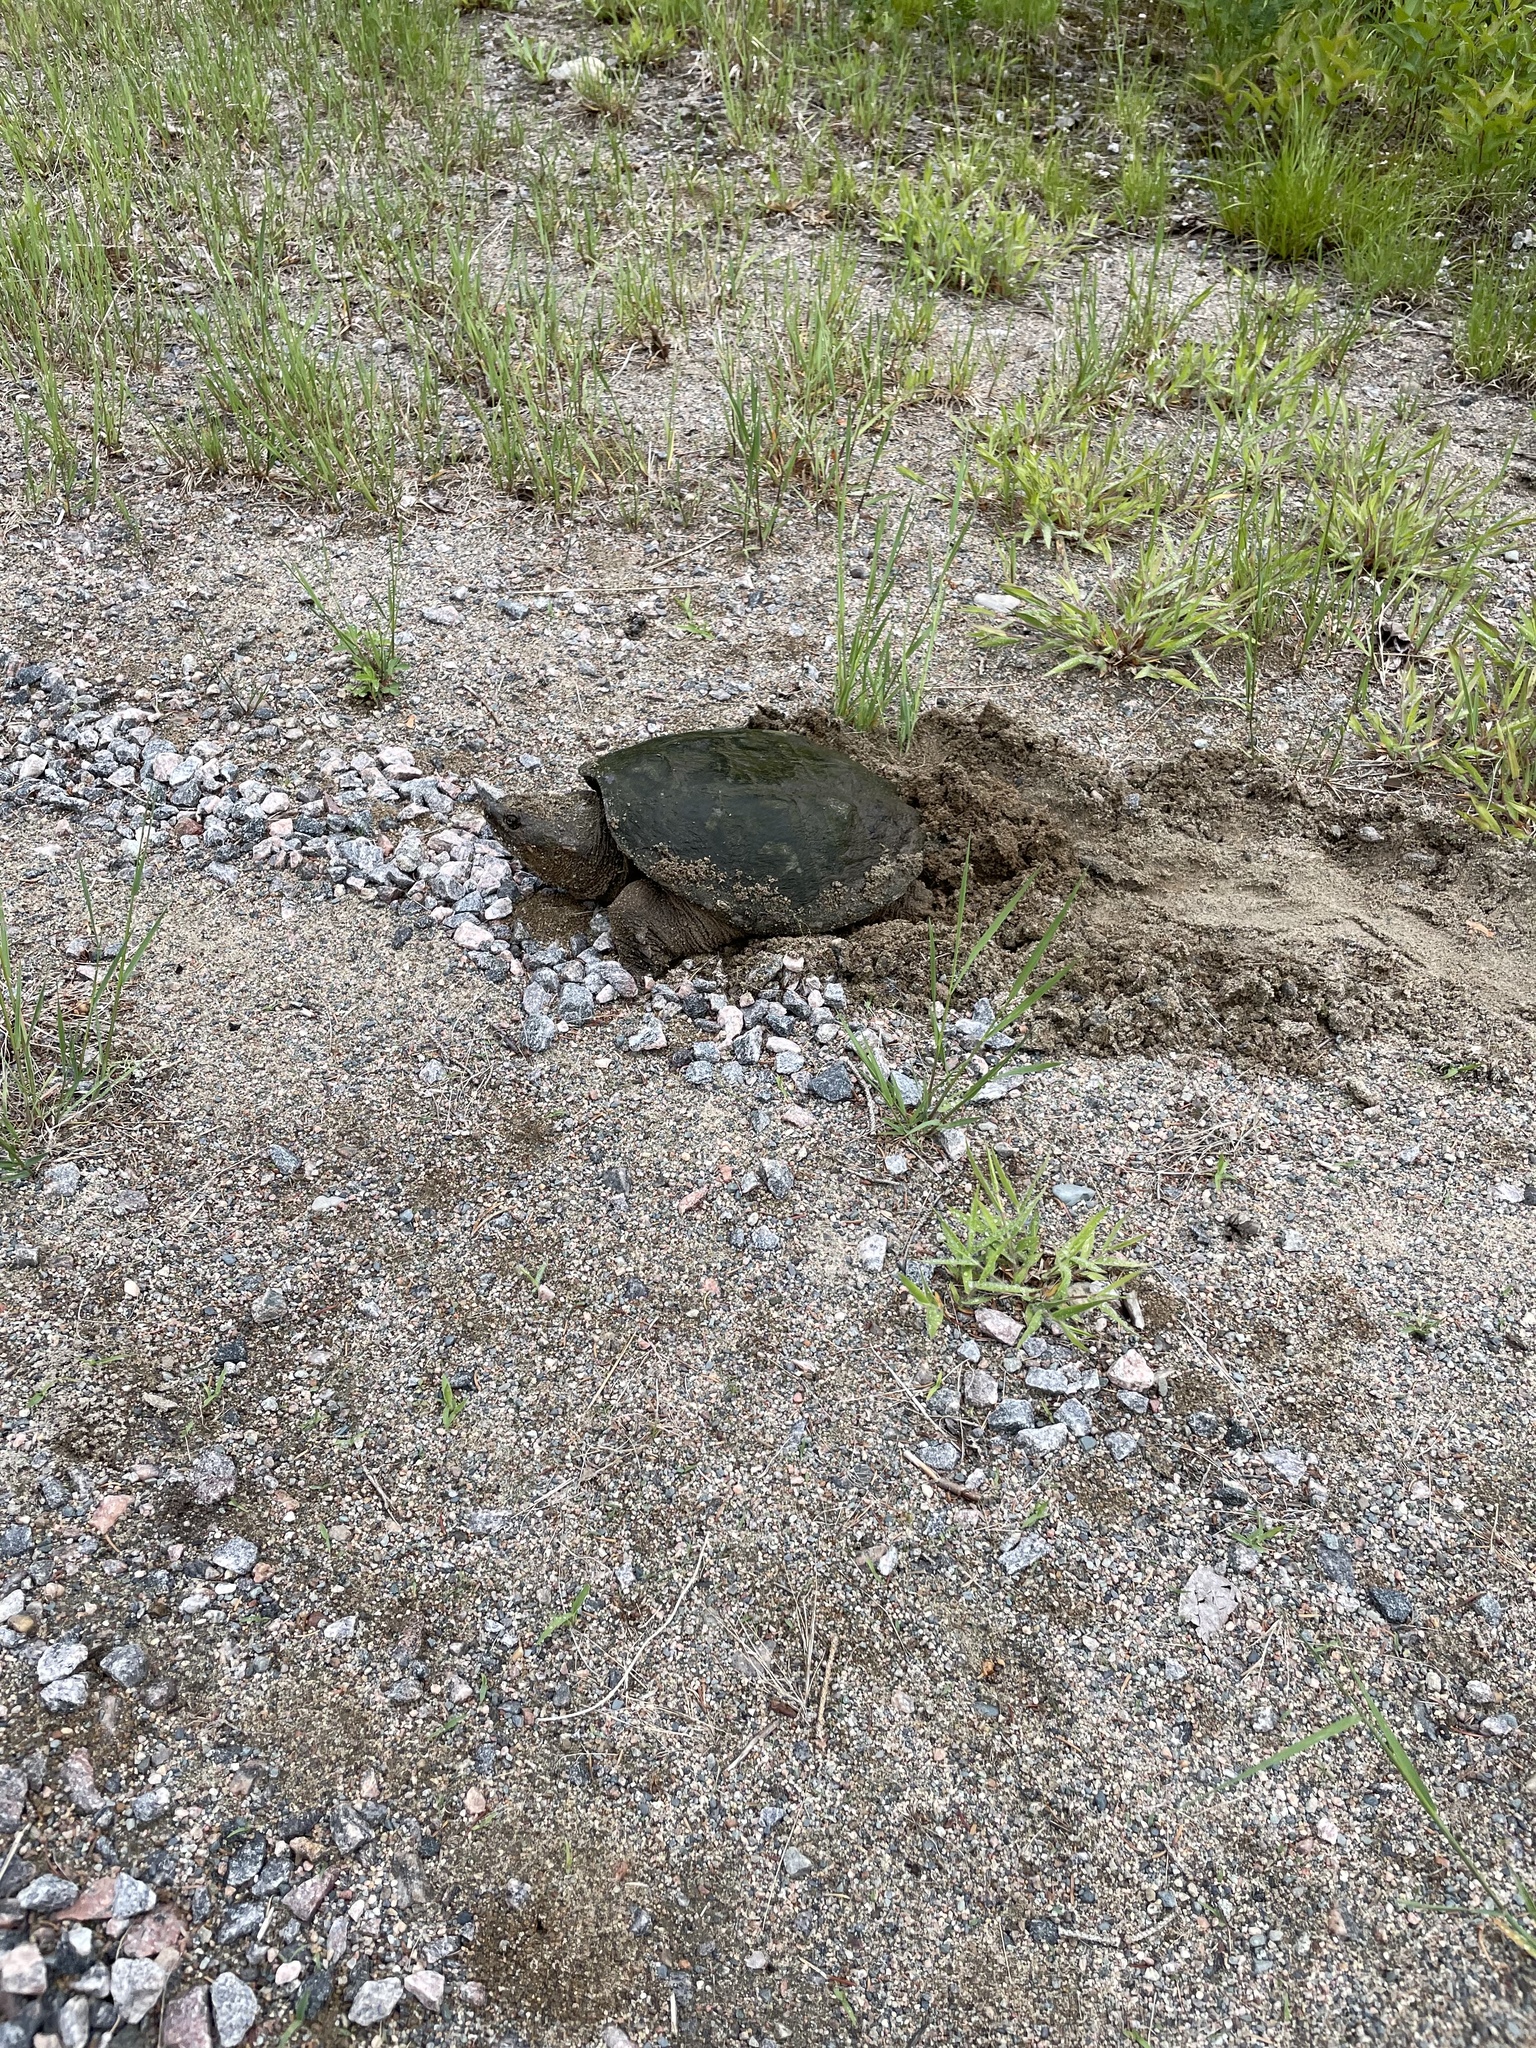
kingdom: Animalia
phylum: Chordata
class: Testudines
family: Chelydridae
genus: Chelydra
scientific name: Chelydra serpentina
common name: Common snapping turtle
